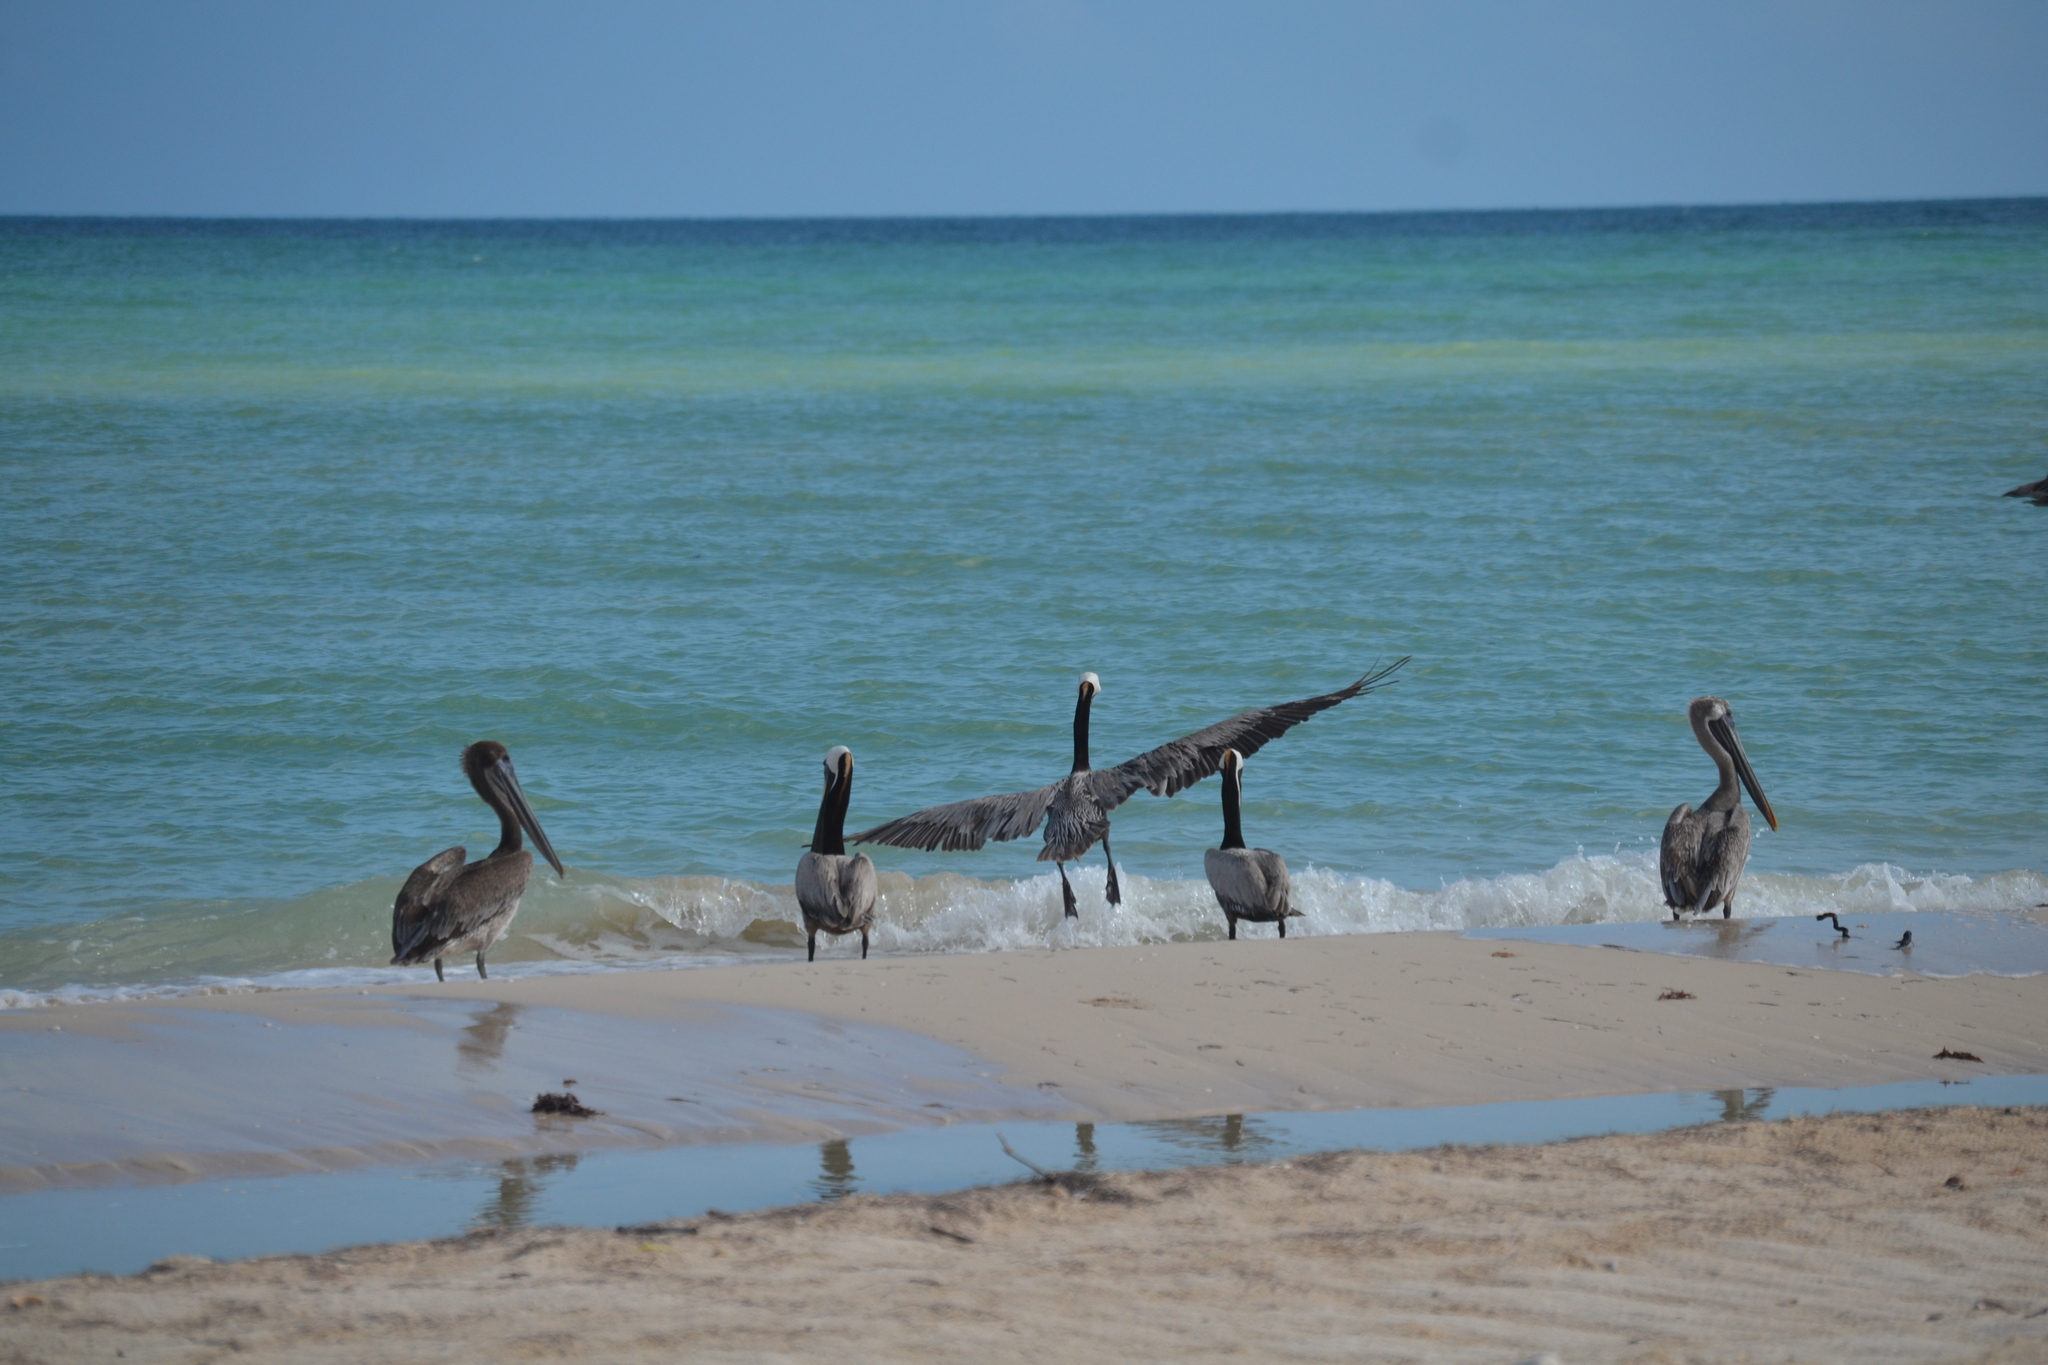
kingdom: Animalia
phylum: Chordata
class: Aves
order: Pelecaniformes
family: Pelecanidae
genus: Pelecanus
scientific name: Pelecanus occidentalis
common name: Brown pelican
